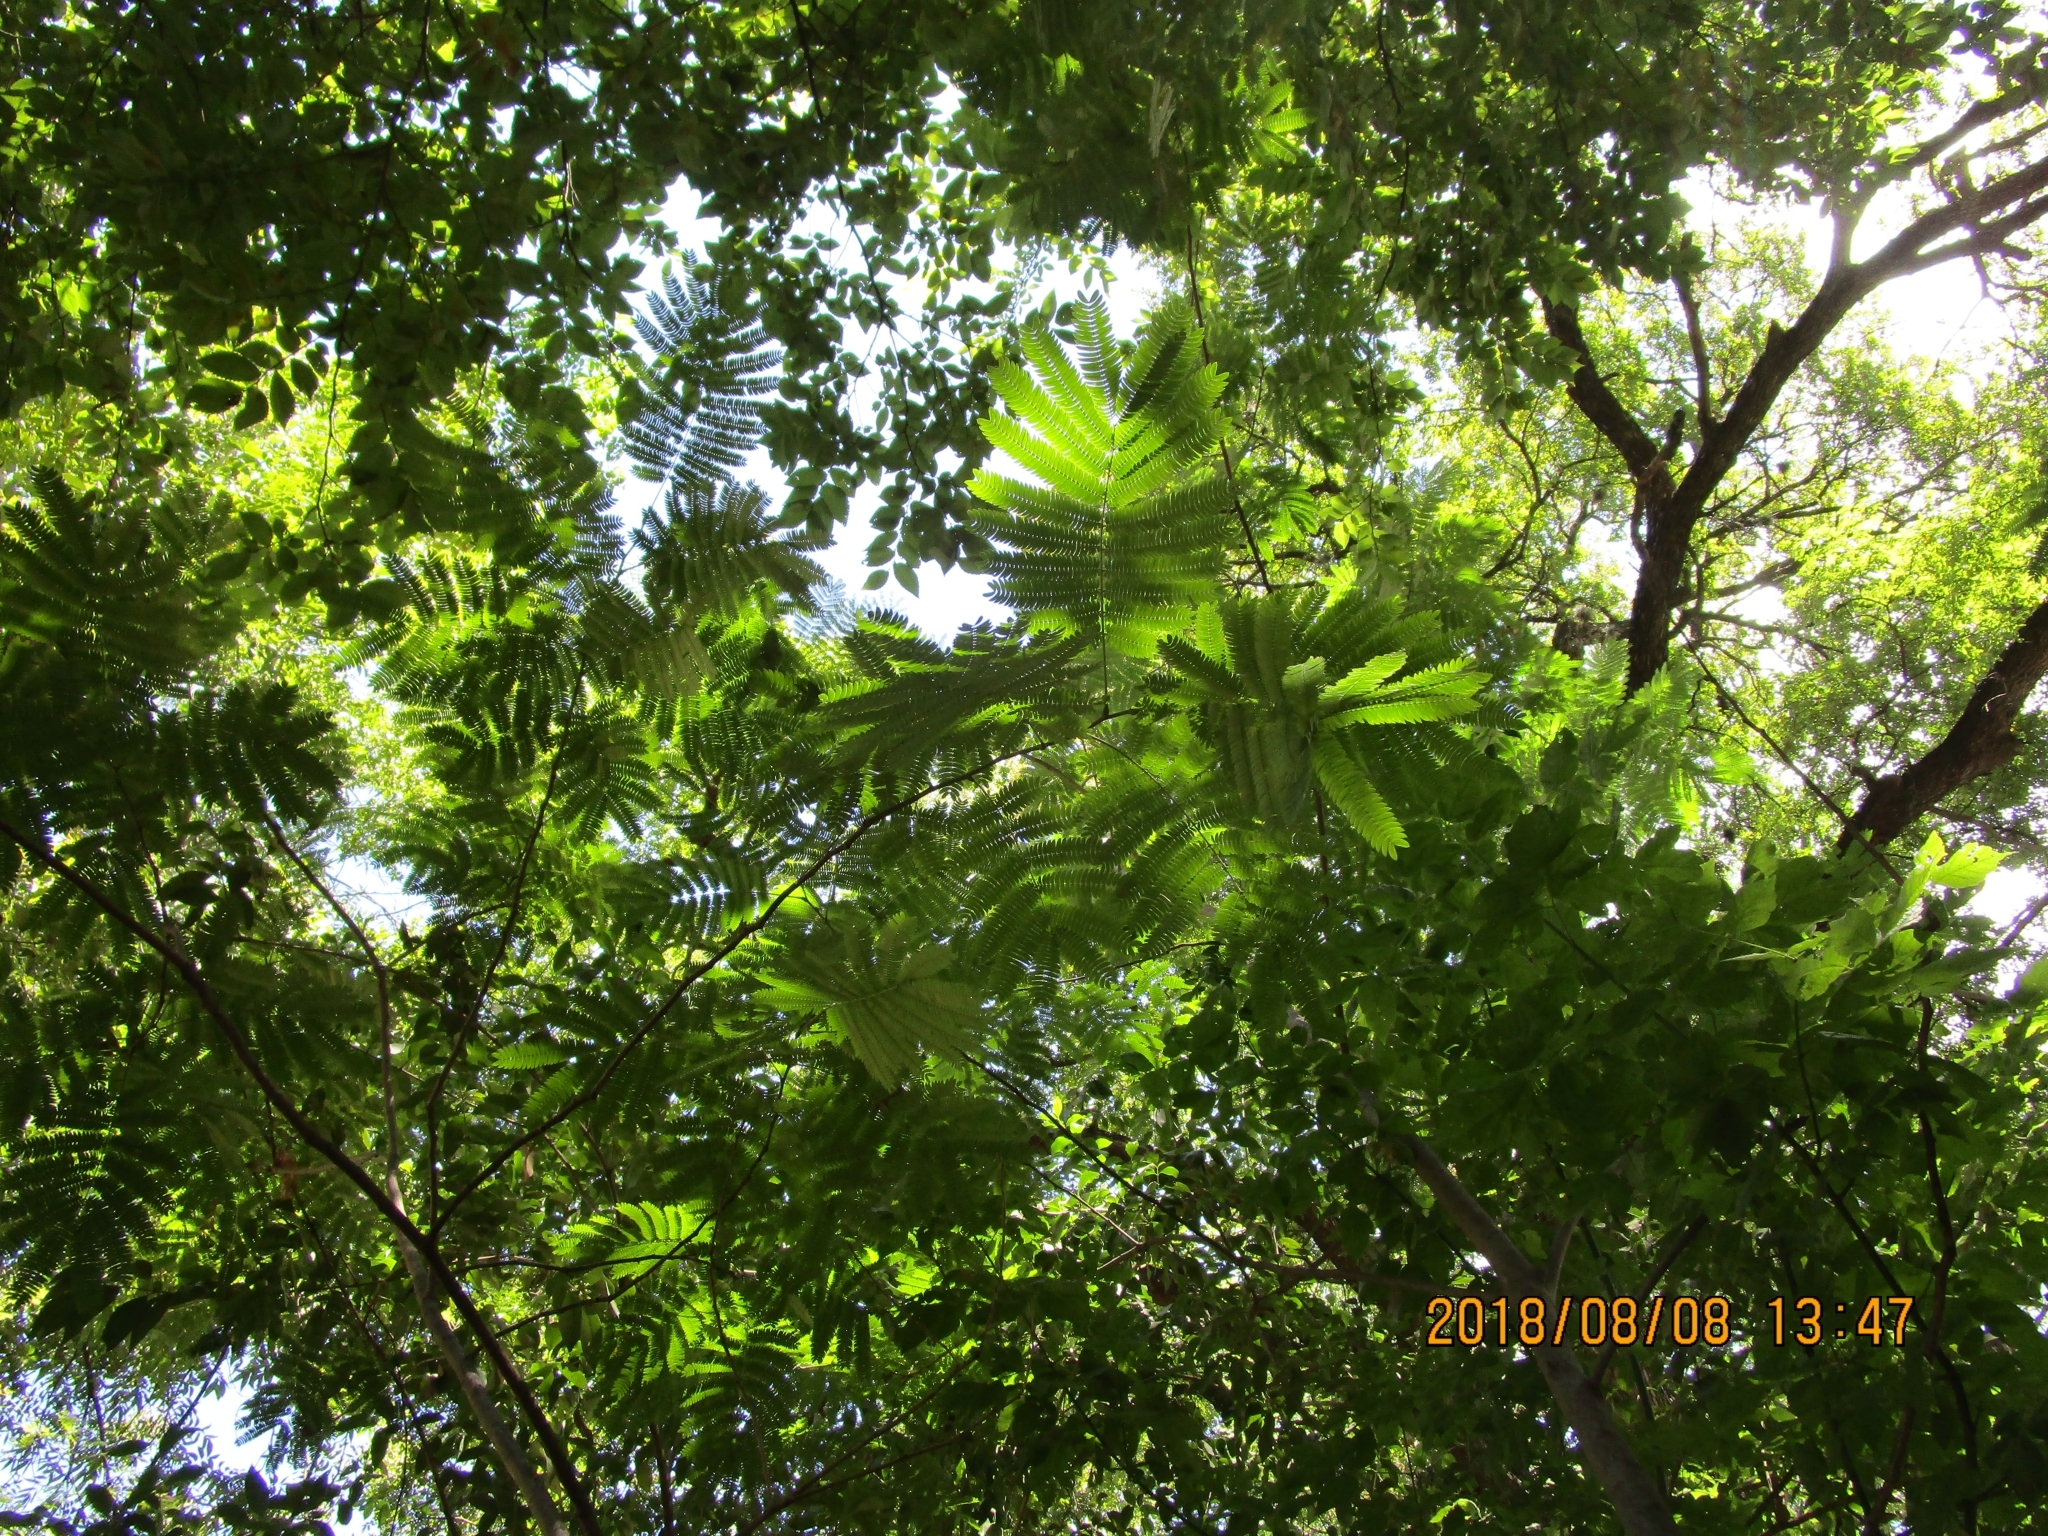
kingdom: Plantae
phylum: Tracheophyta
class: Magnoliopsida
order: Fabales
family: Fabaceae
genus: Albizia
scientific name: Albizia julibrissin
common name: Silktree
